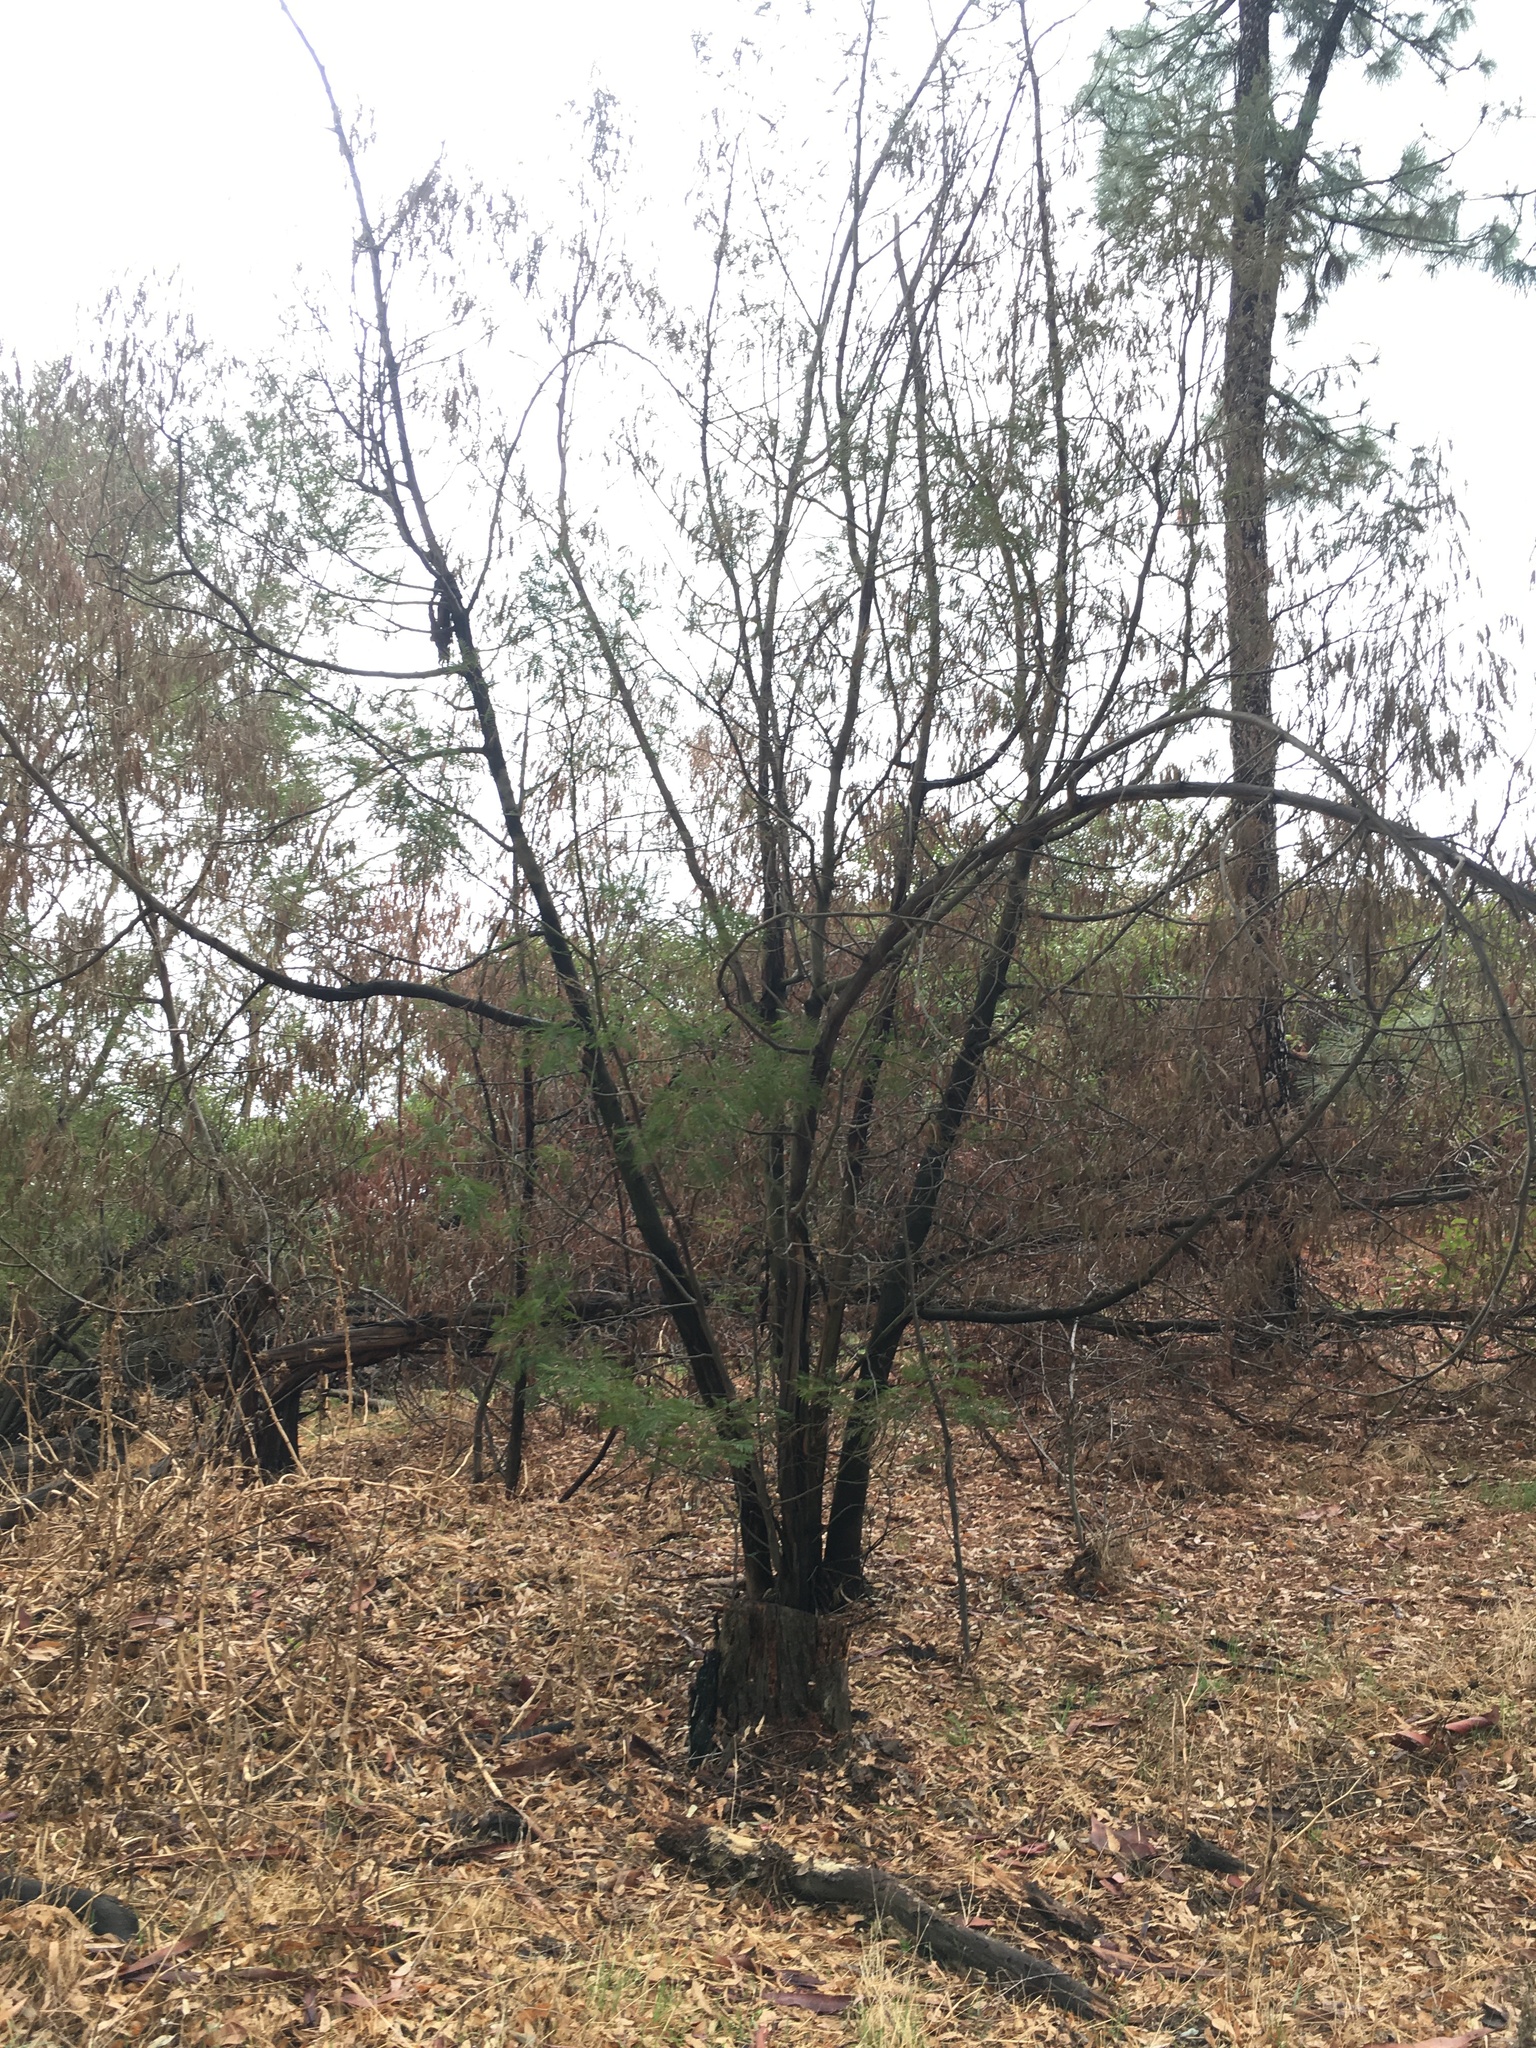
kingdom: Plantae
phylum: Tracheophyta
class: Magnoliopsida
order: Fabales
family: Fabaceae
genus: Acacia
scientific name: Acacia mearnsii
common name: Black wattle
